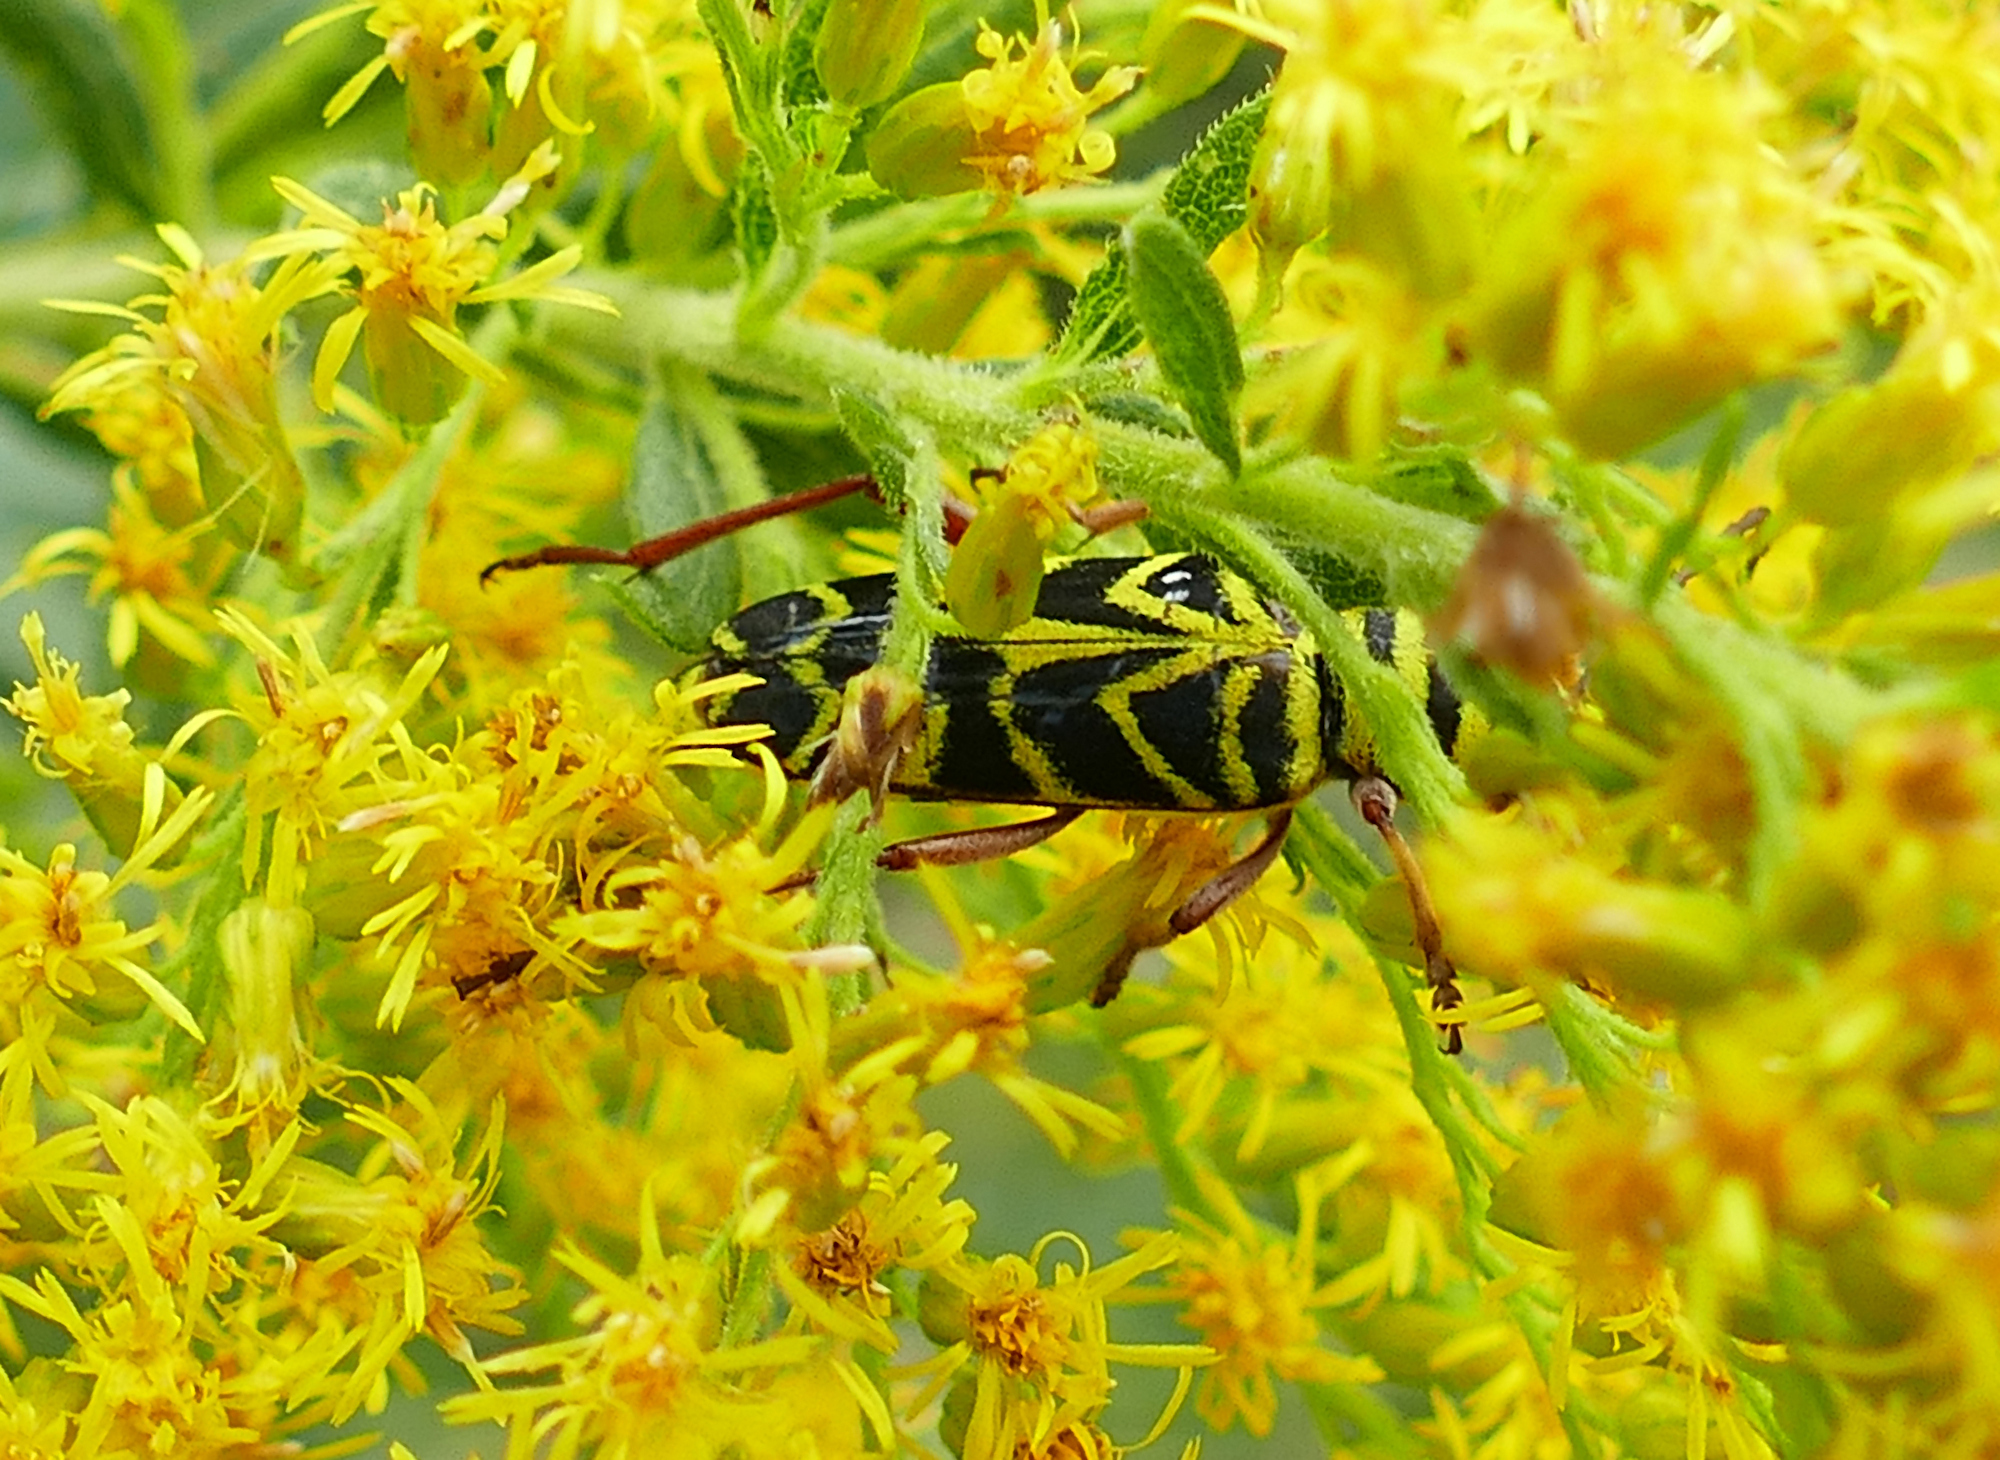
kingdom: Animalia
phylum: Arthropoda
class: Insecta
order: Coleoptera
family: Cerambycidae
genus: Megacyllene
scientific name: Megacyllene robiniae
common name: Locust borer
